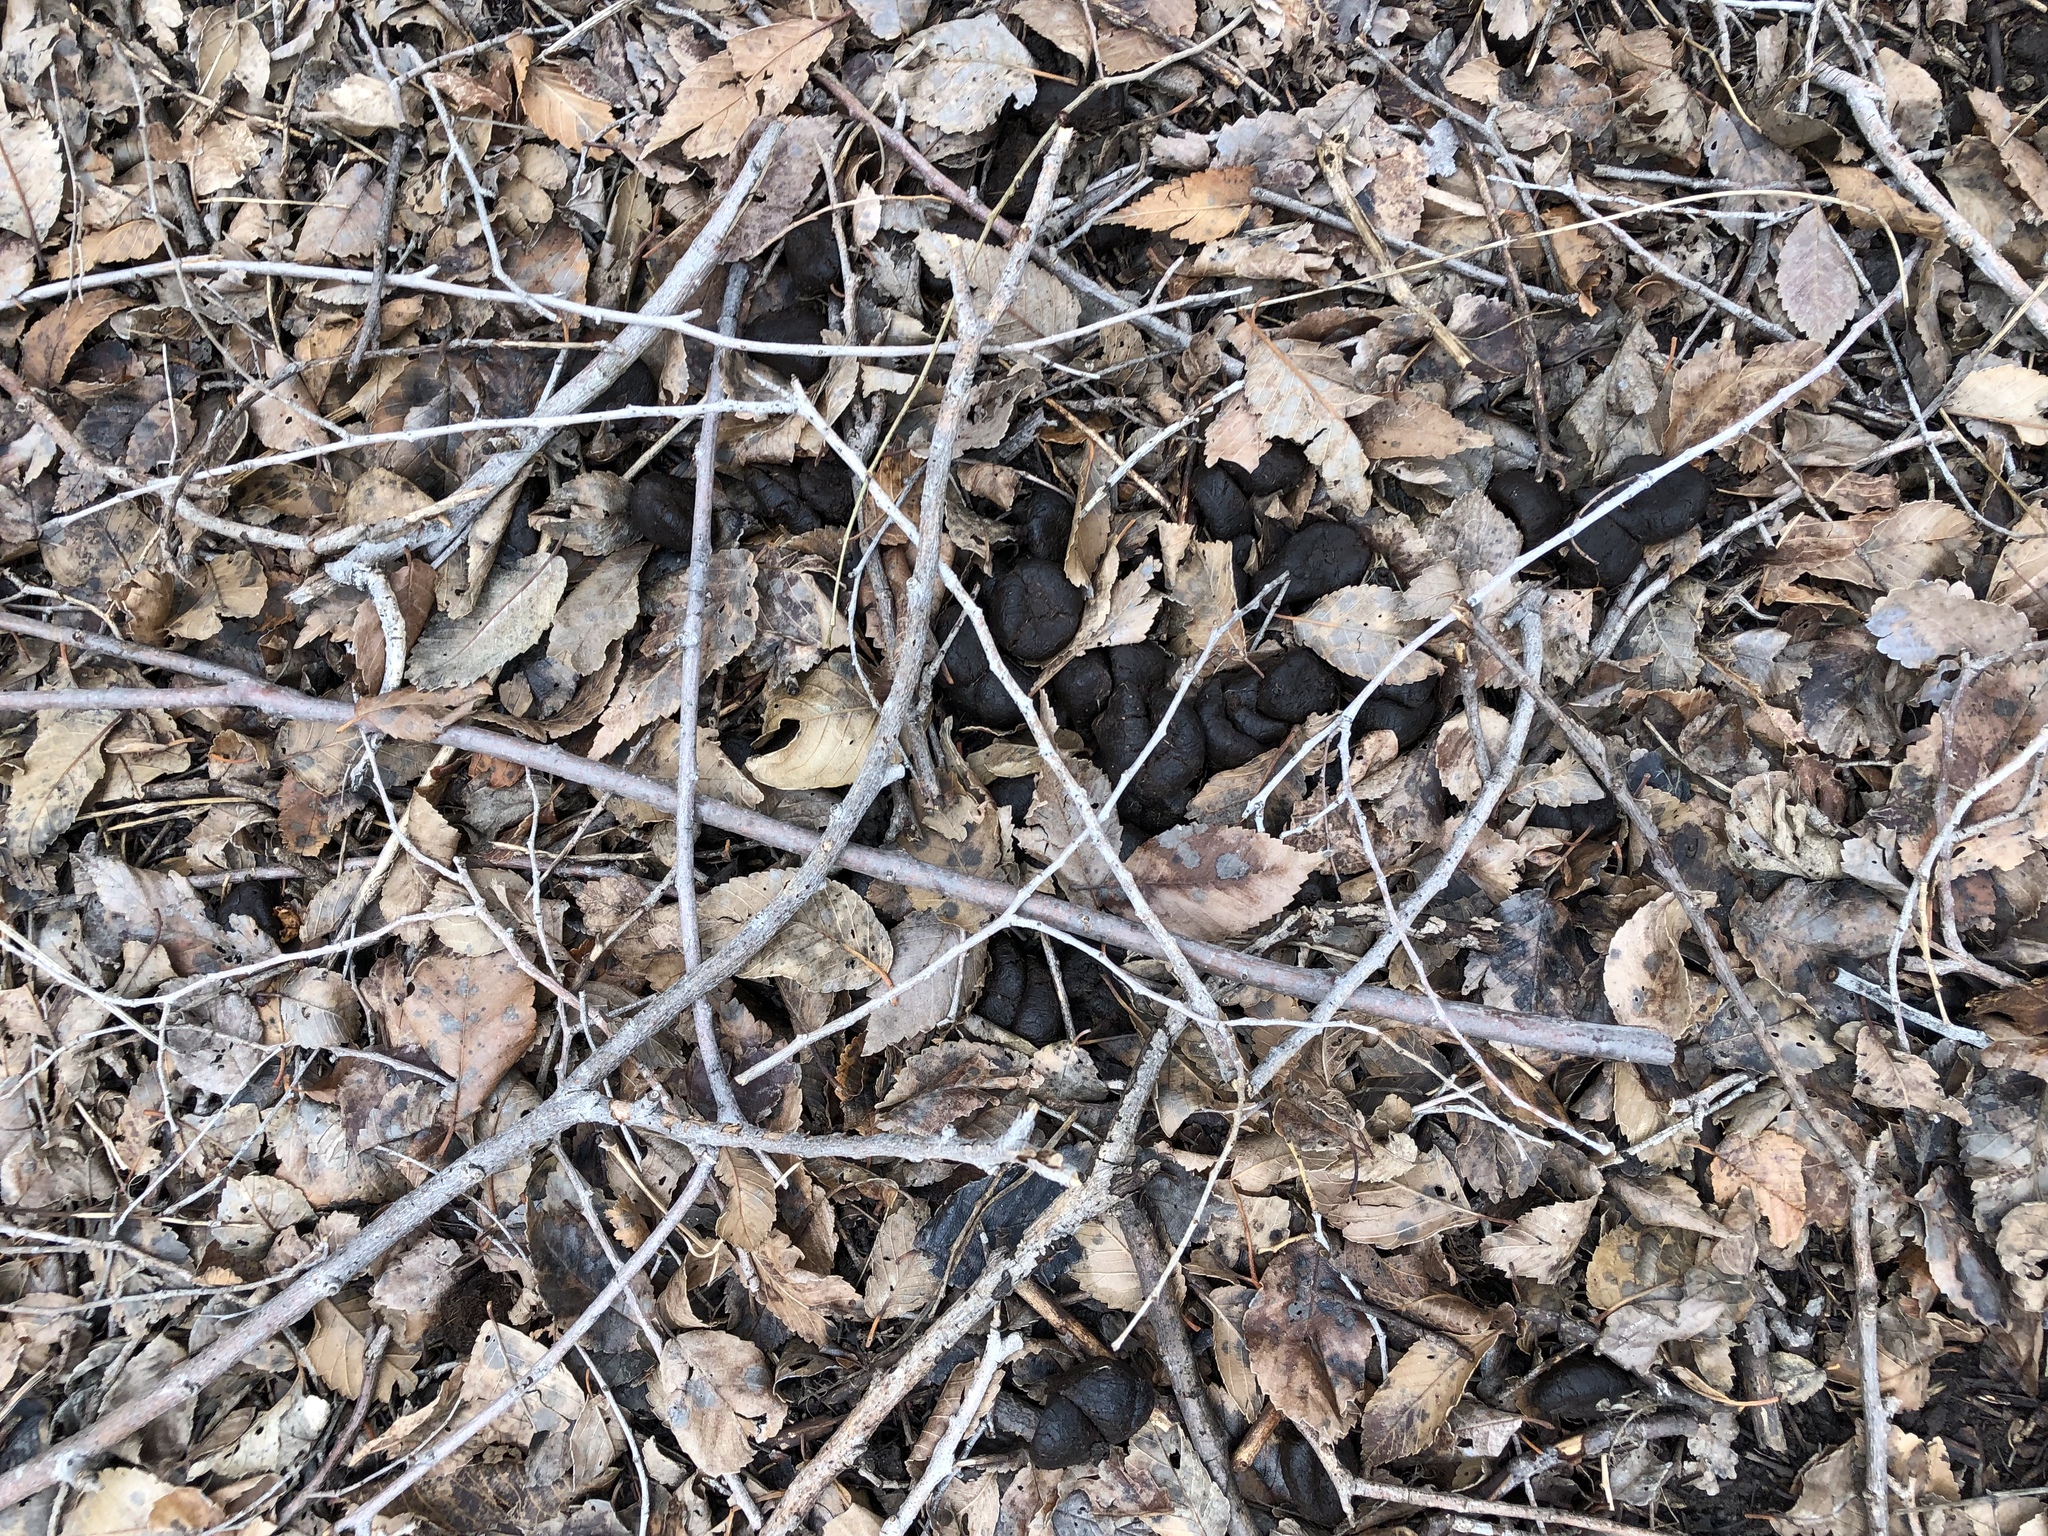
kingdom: Animalia
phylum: Chordata
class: Mammalia
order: Artiodactyla
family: Cervidae
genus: Cervus
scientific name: Cervus elaphus
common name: Red deer
